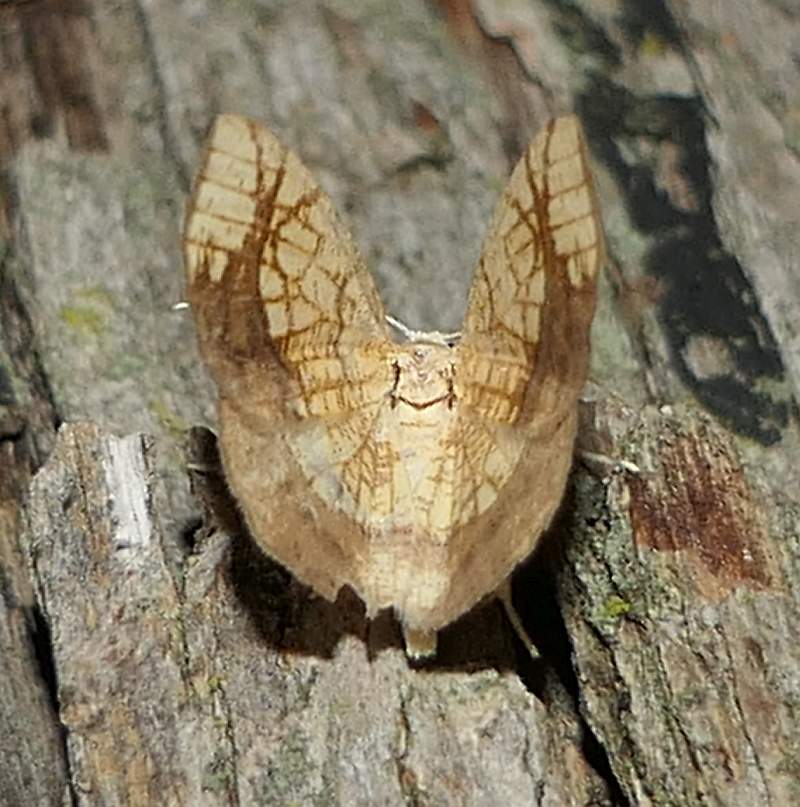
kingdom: Animalia
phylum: Arthropoda
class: Insecta
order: Lepidoptera
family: Geometridae
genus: Nematocampa
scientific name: Nematocampa resistaria
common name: Horned spanworm moth
